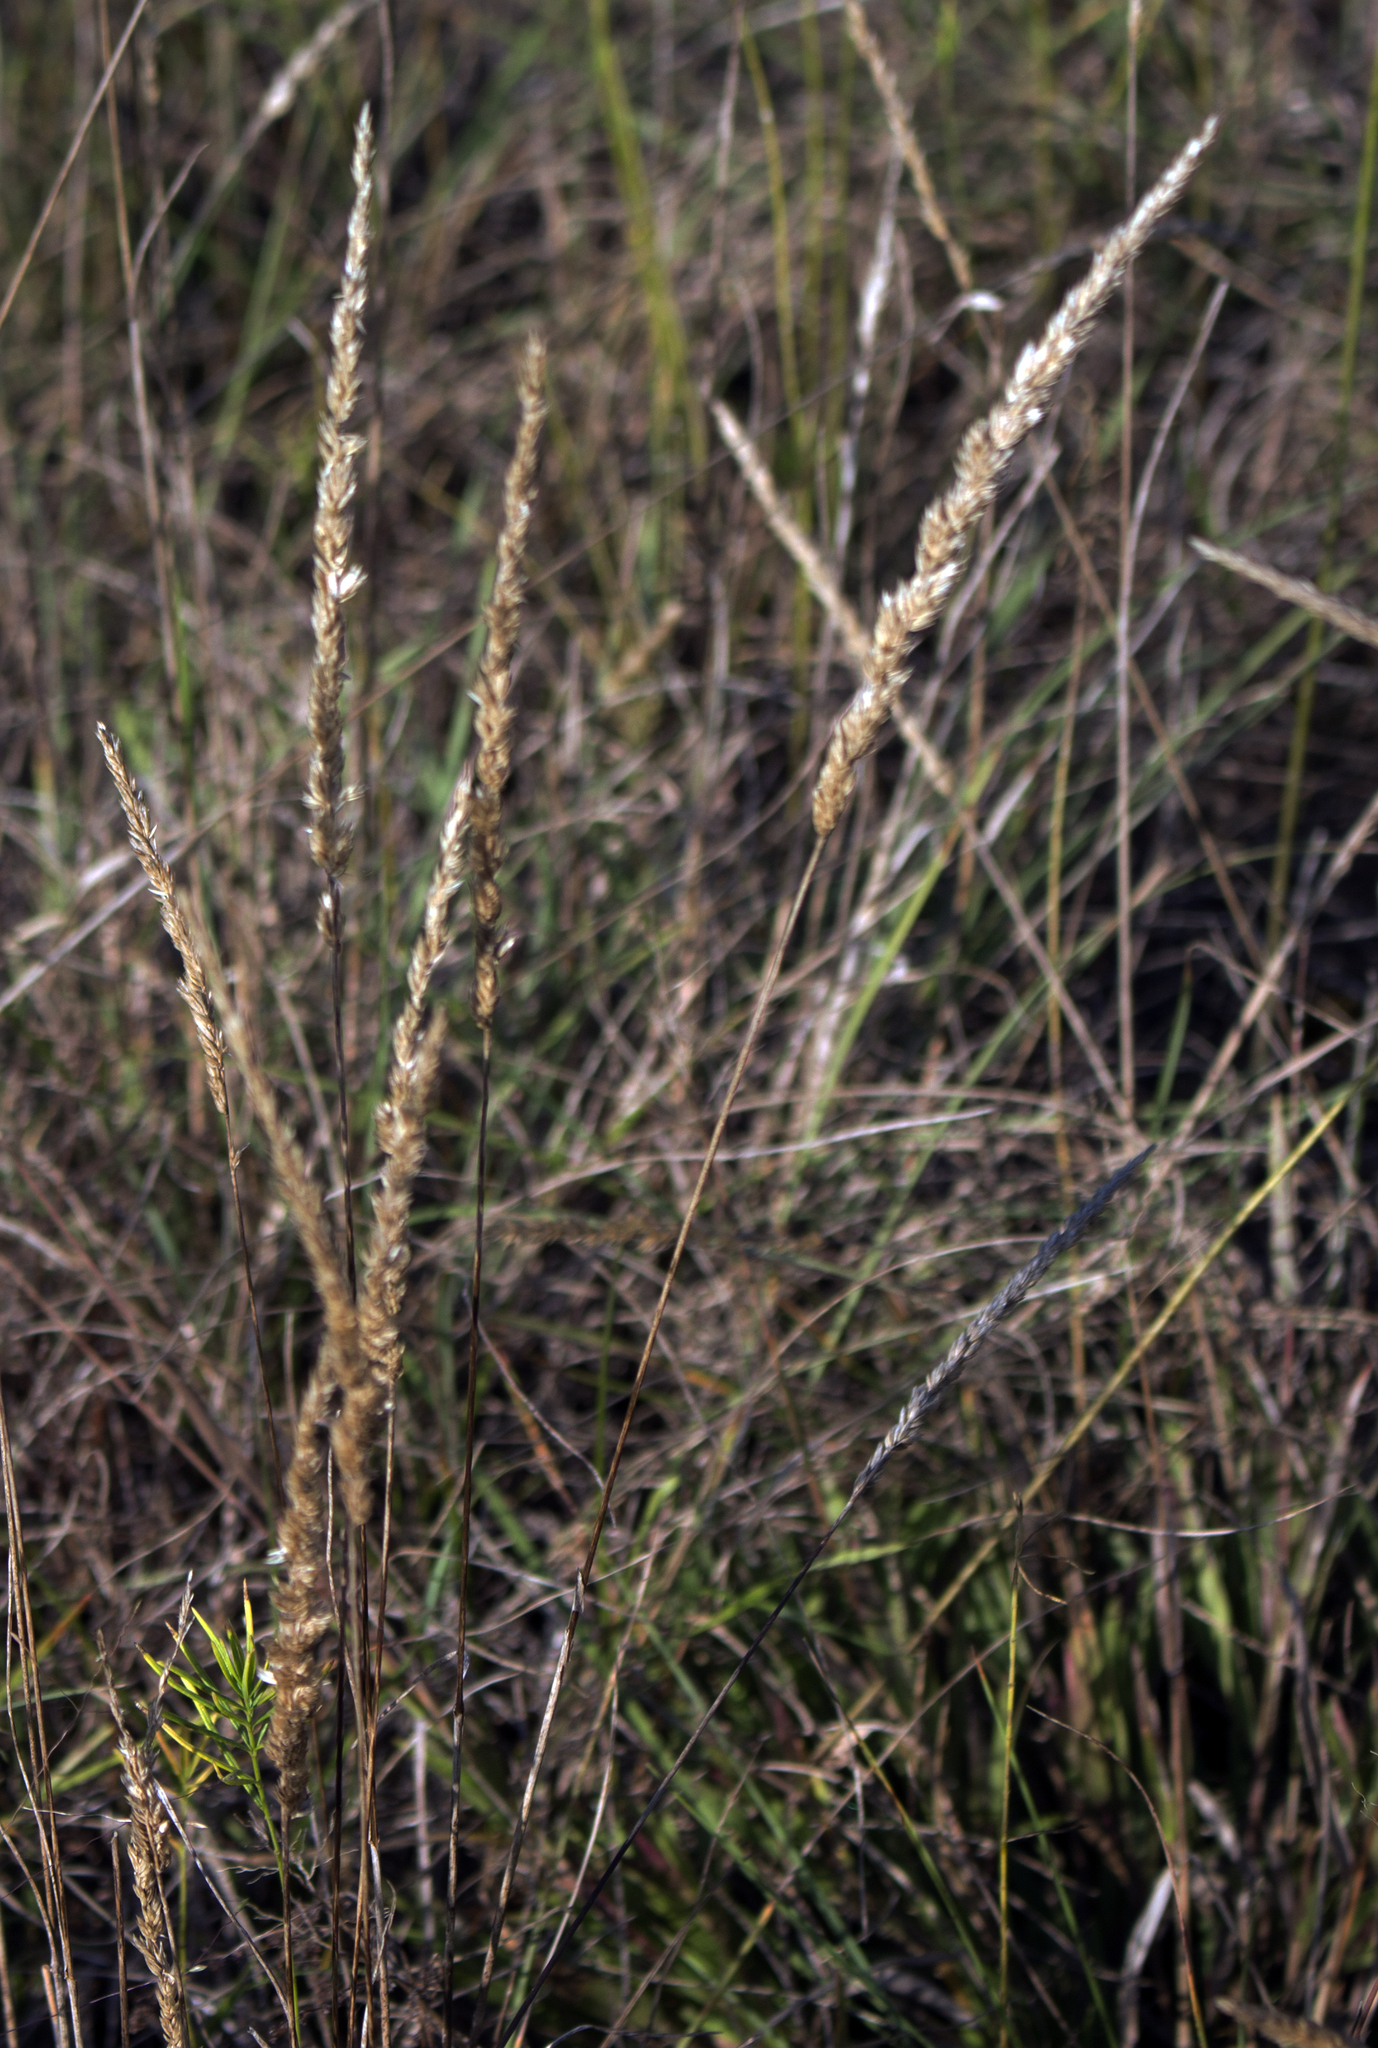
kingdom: Plantae
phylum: Tracheophyta
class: Liliopsida
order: Poales
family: Poaceae
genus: Koeleria
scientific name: Koeleria macrantha
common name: Crested hair-grass
